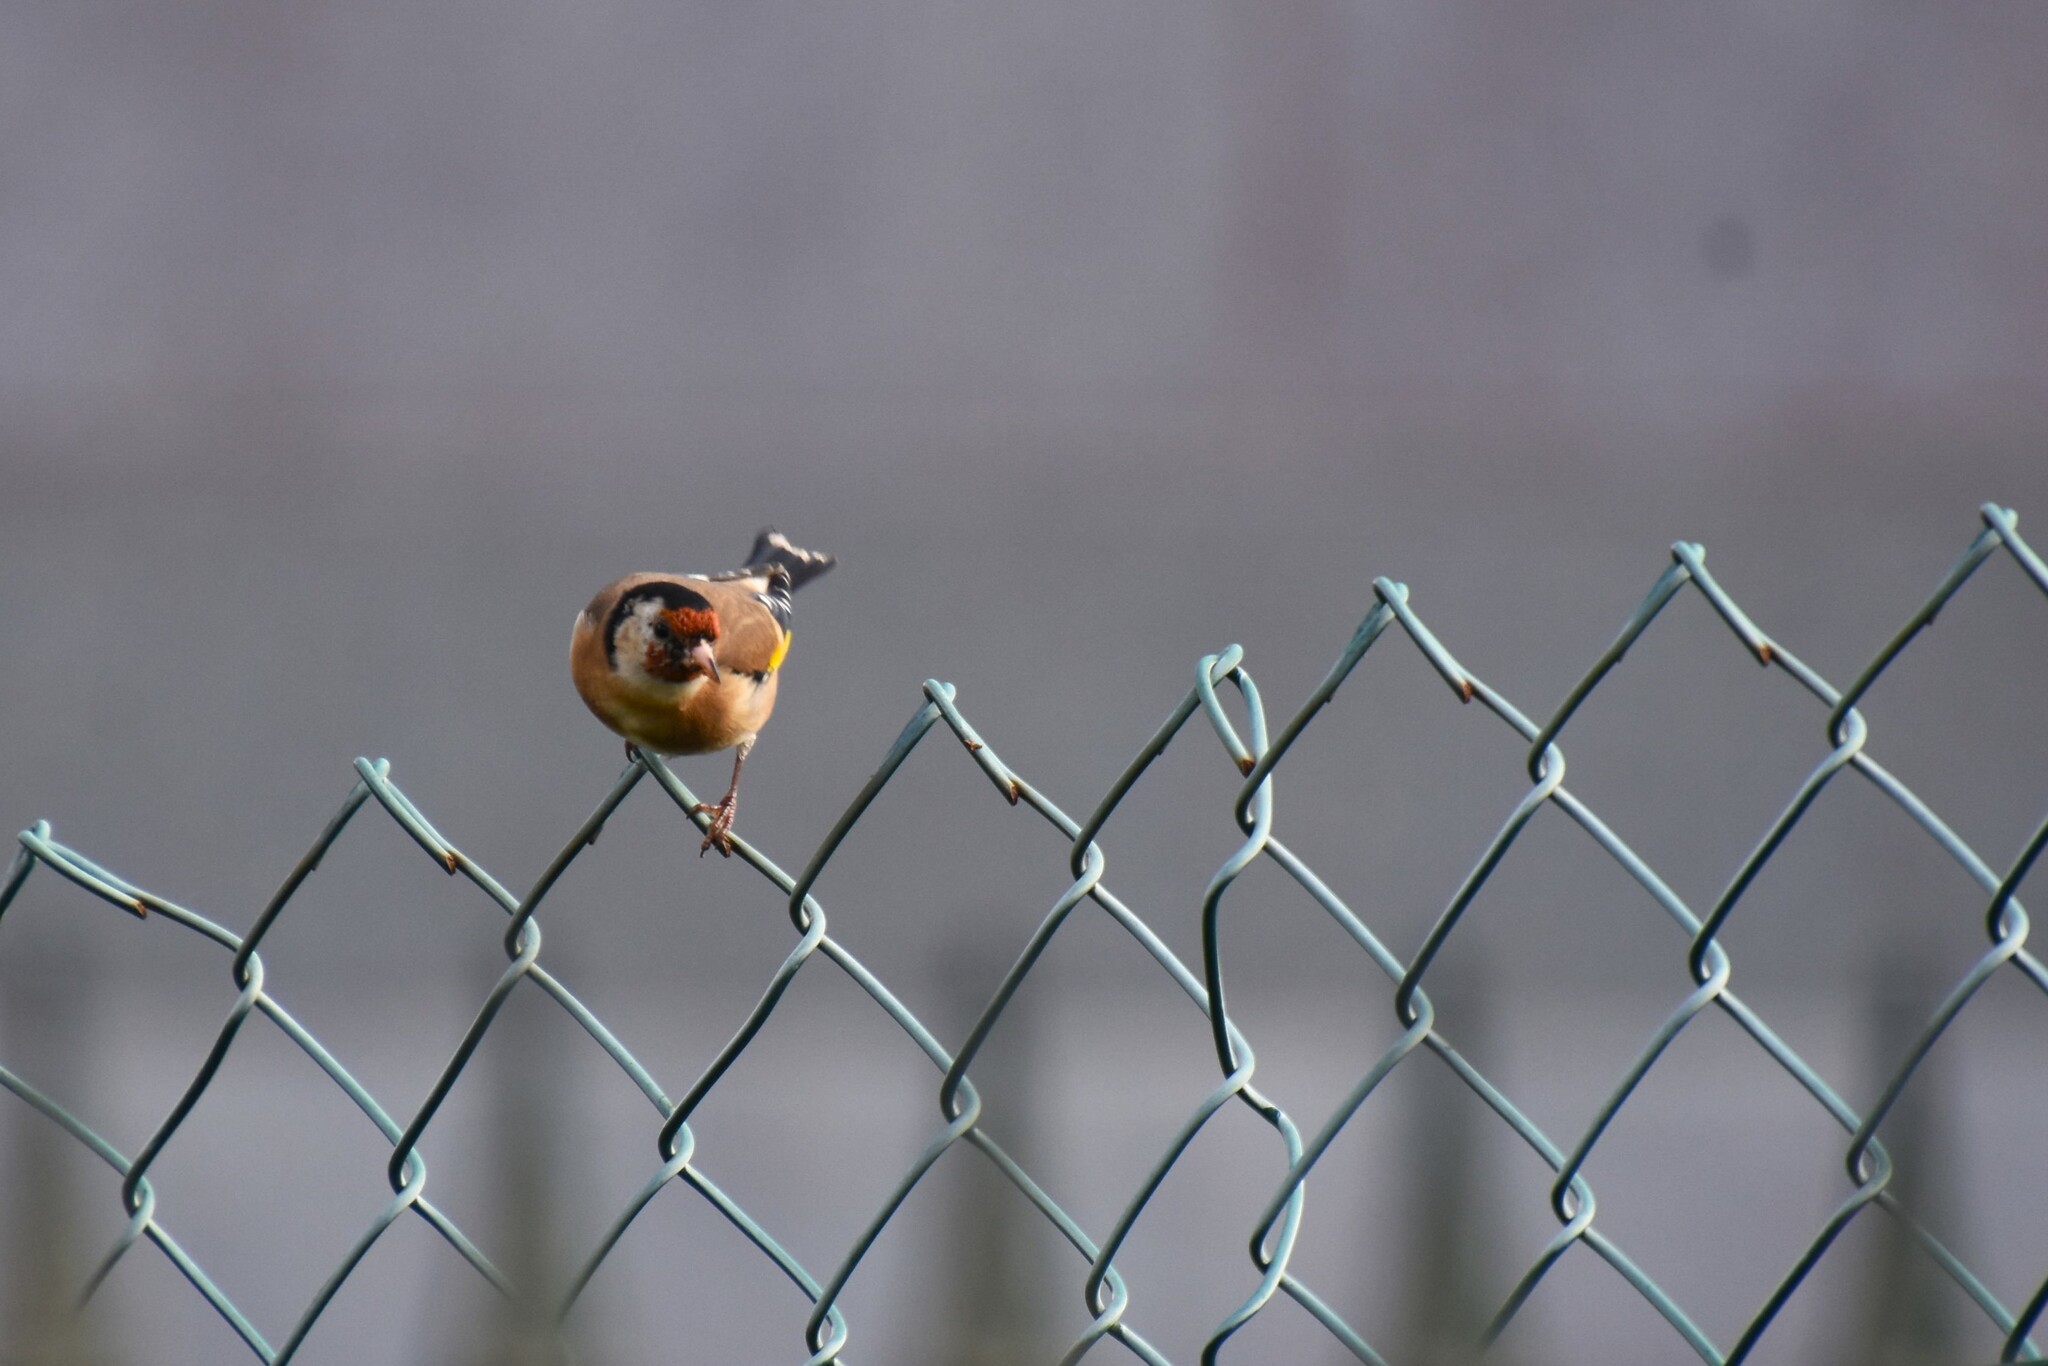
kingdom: Animalia
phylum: Chordata
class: Aves
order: Passeriformes
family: Fringillidae
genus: Carduelis
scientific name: Carduelis carduelis
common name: European goldfinch
